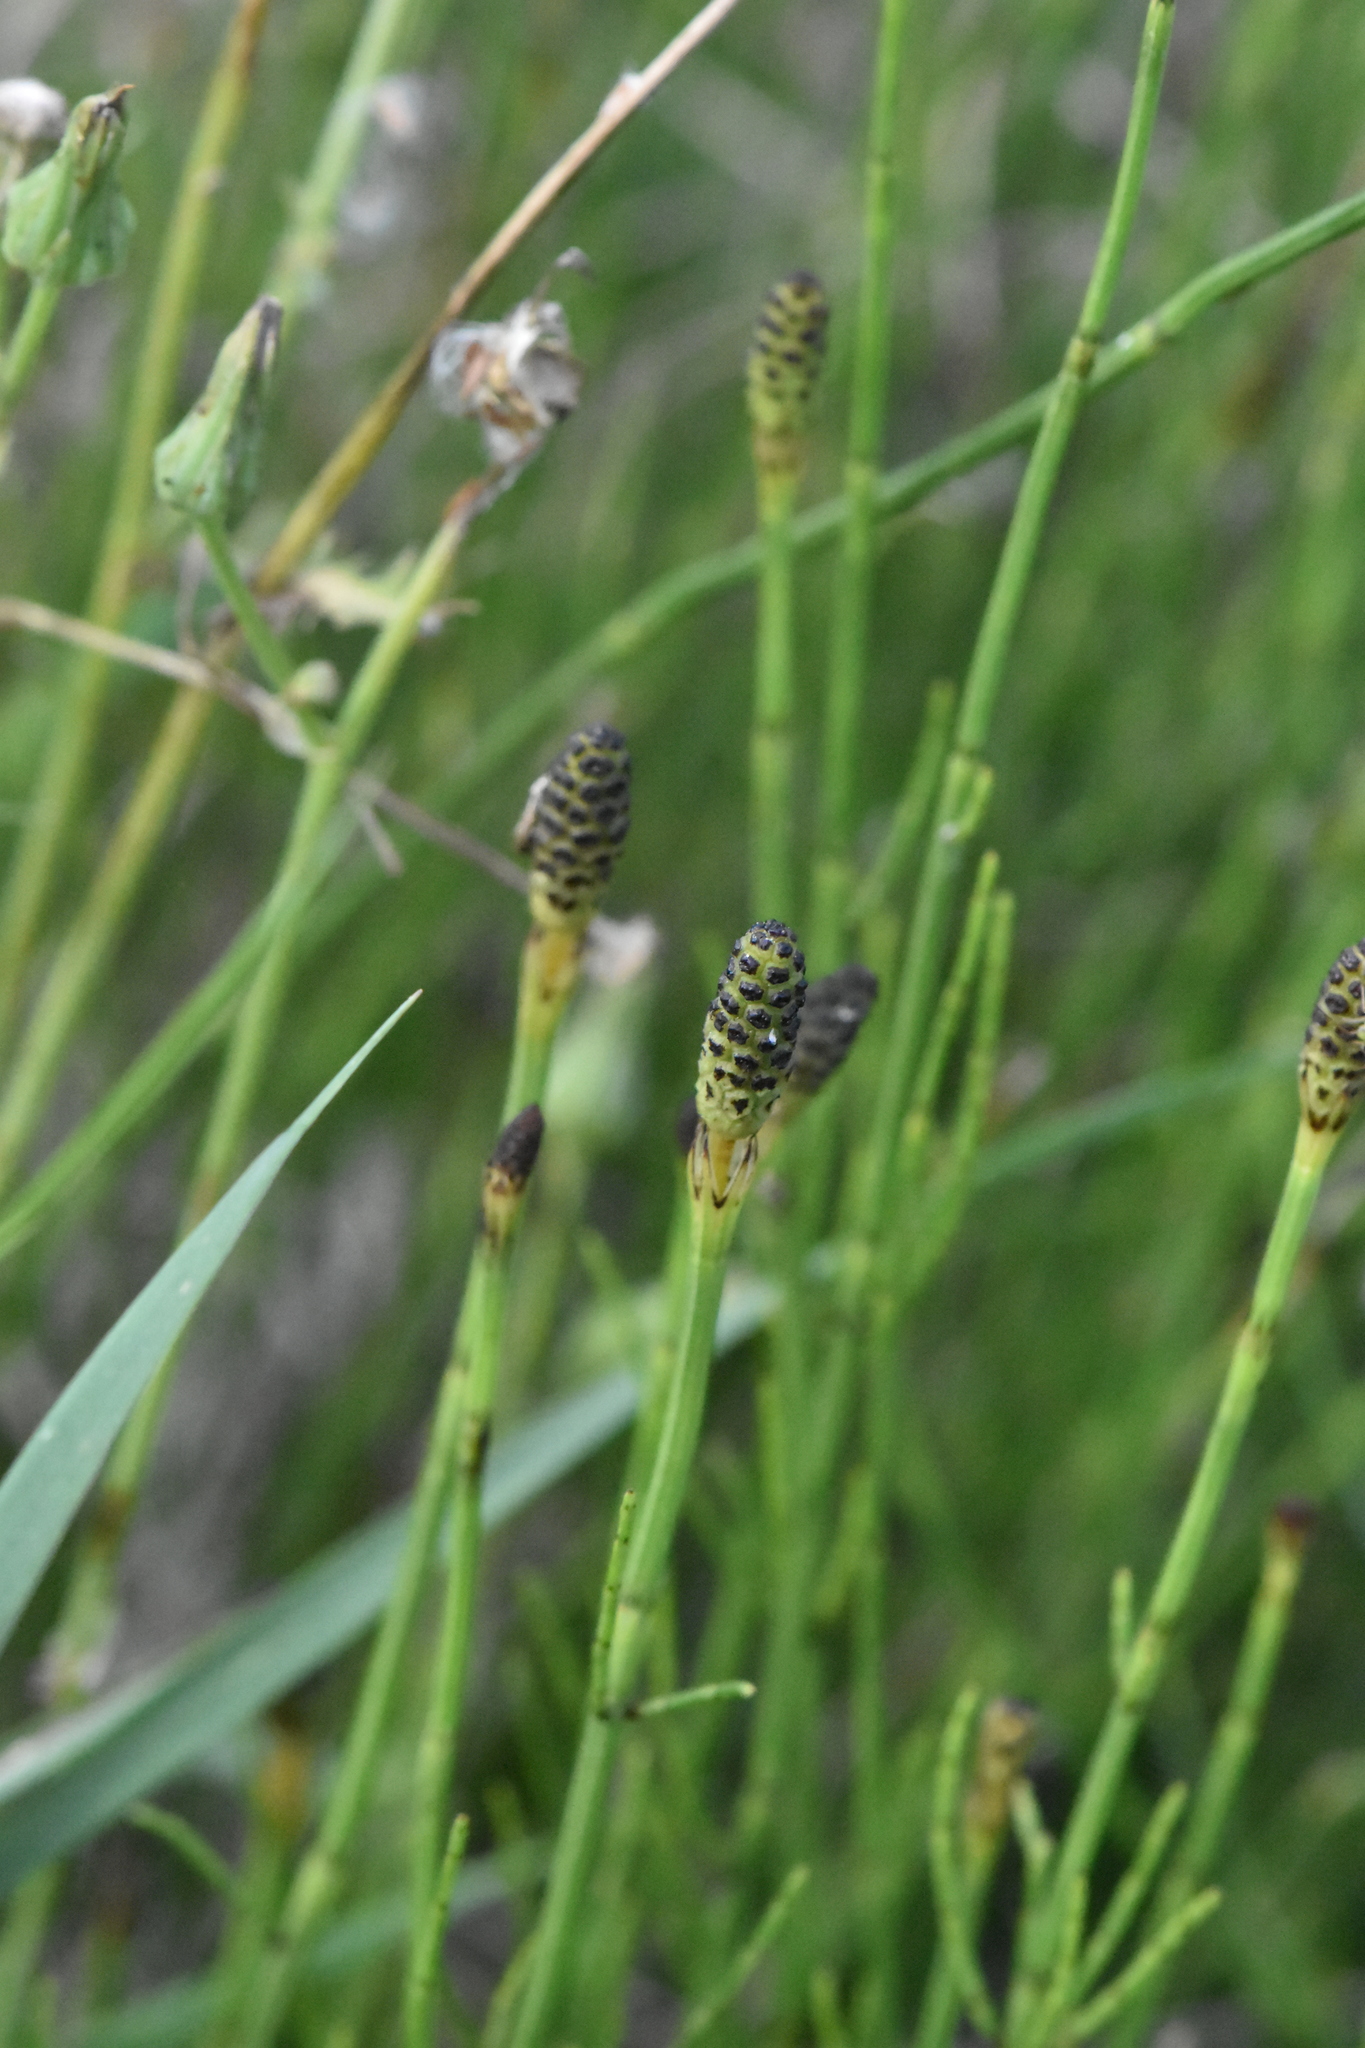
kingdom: Plantae
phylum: Tracheophyta
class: Polypodiopsida
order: Equisetales
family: Equisetaceae
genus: Equisetum
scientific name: Equisetum palustre
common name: Marsh horsetail
